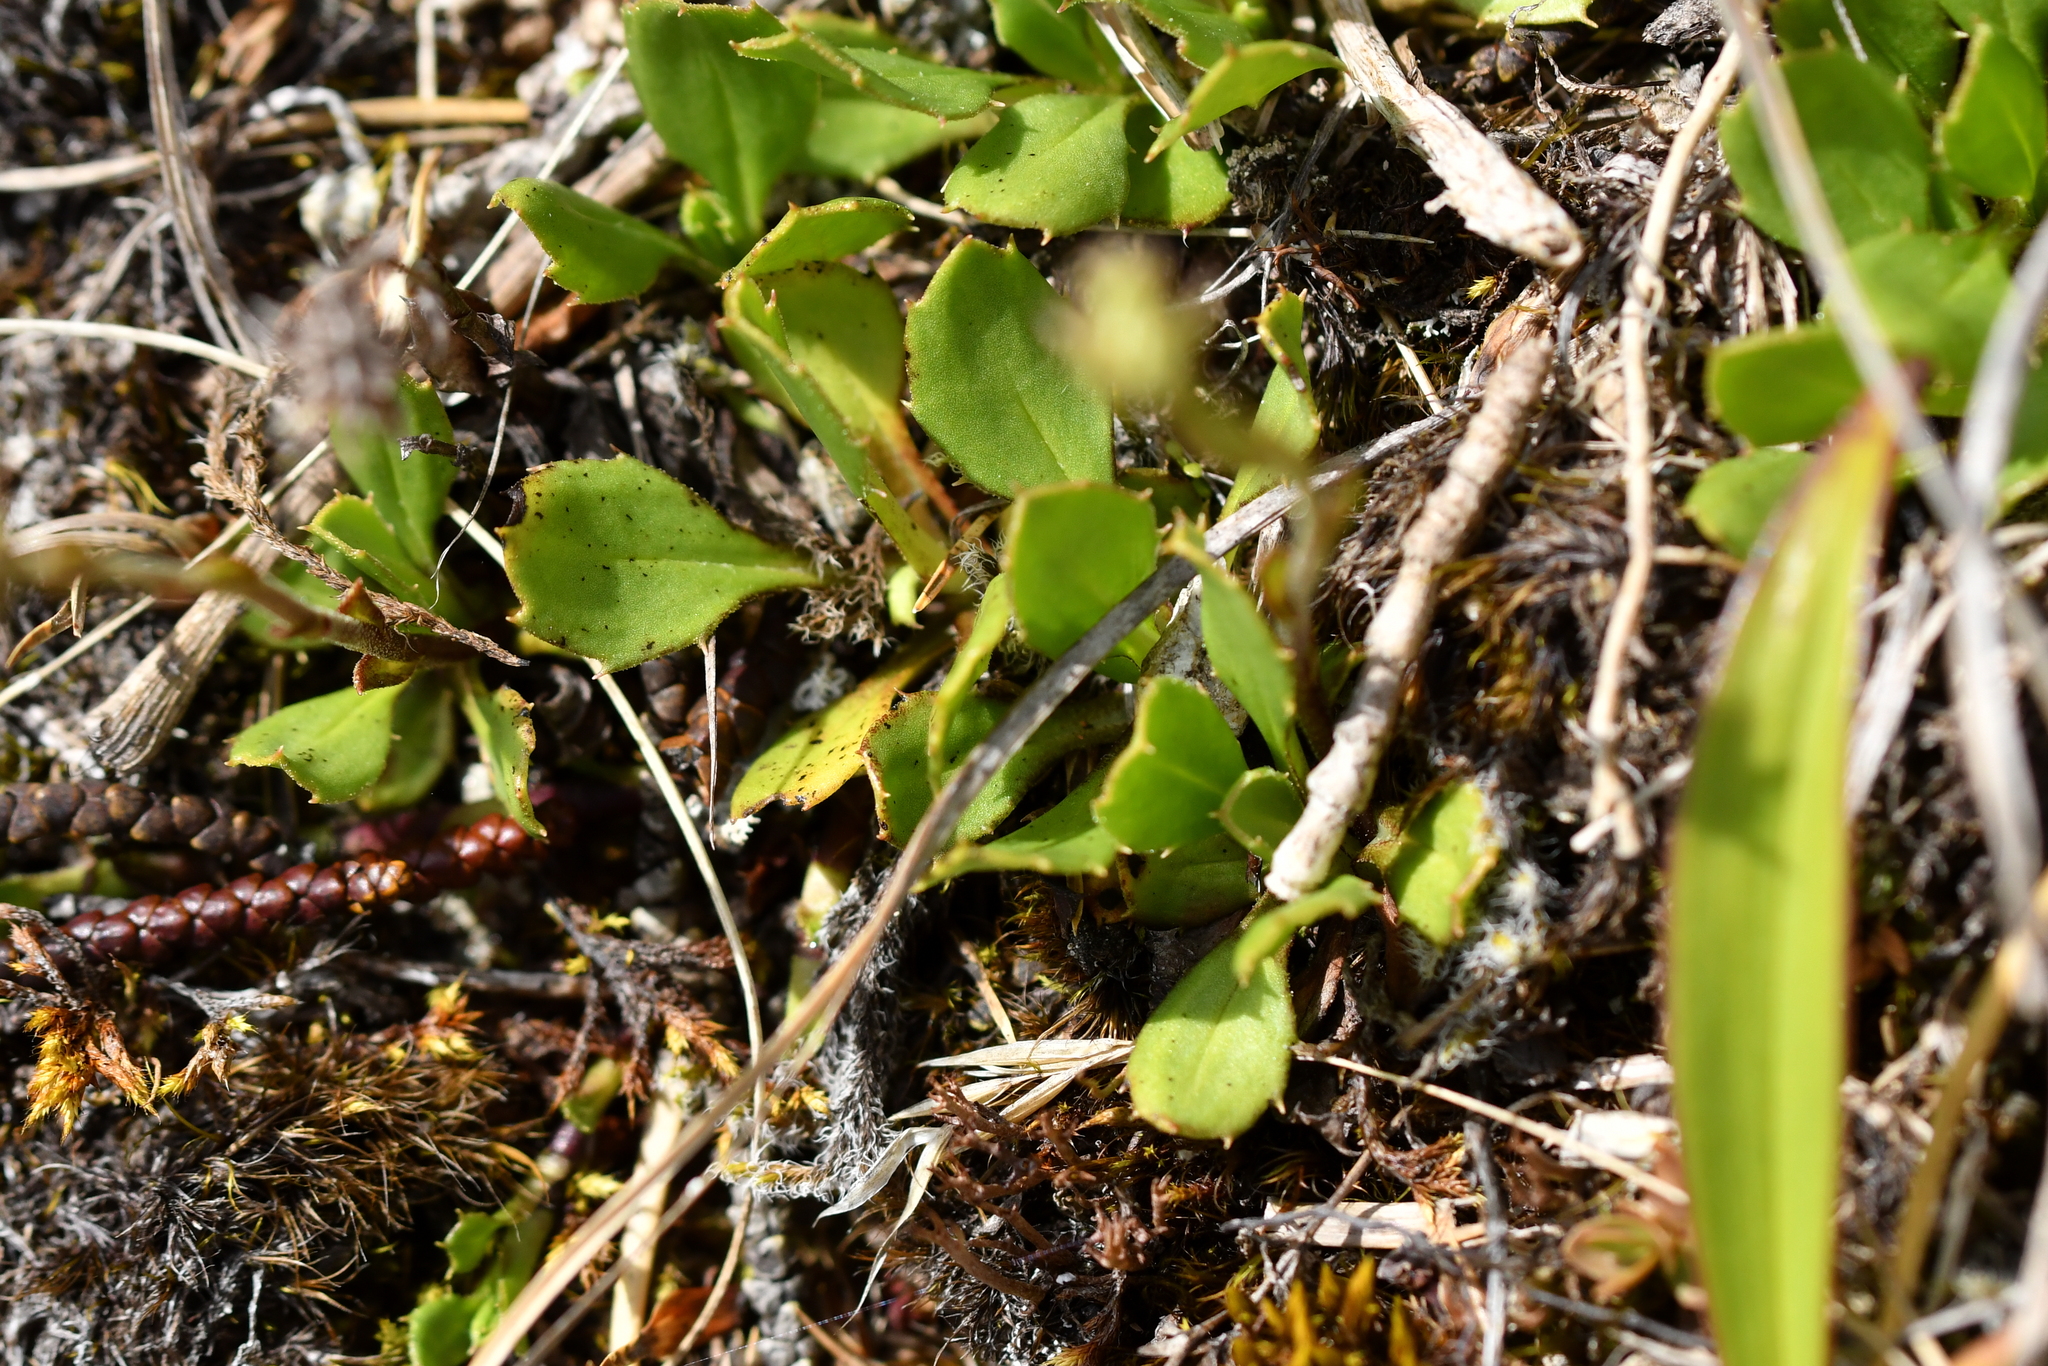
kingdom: Plantae
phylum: Tracheophyta
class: Magnoliopsida
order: Asterales
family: Asteraceae
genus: Celmisia
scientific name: Celmisia glandulosa
